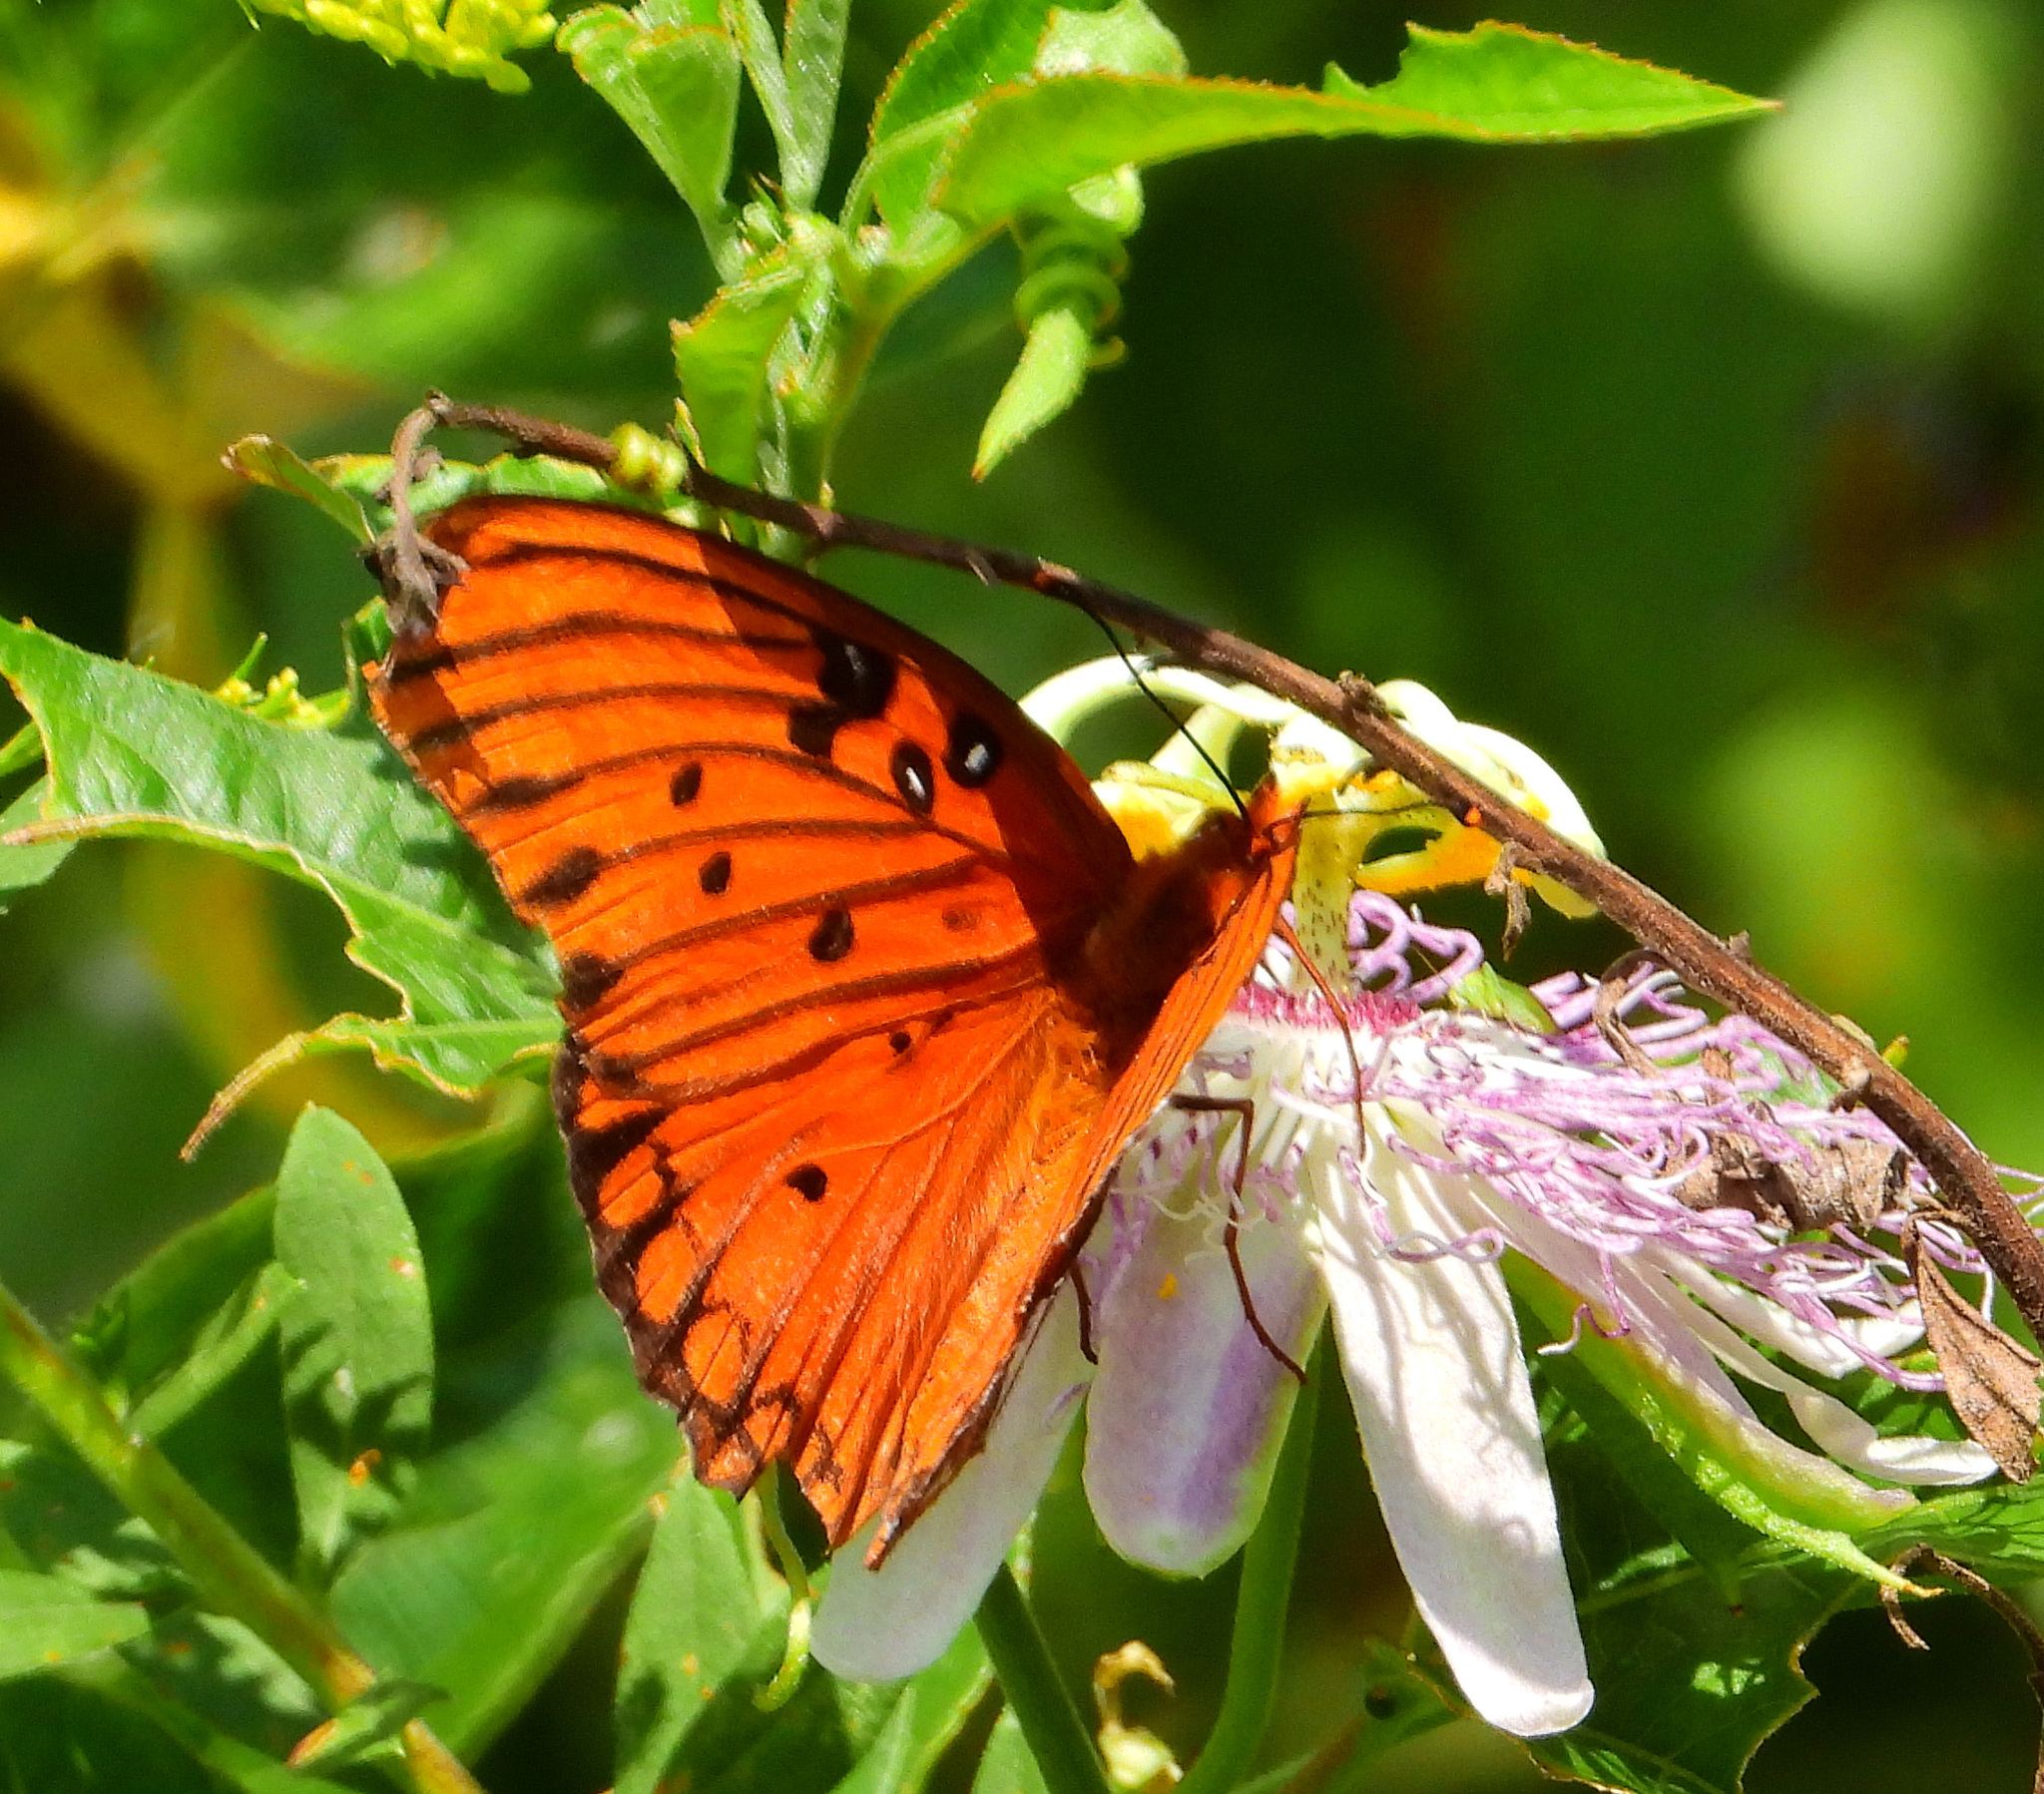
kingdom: Animalia
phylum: Arthropoda
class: Insecta
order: Lepidoptera
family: Nymphalidae
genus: Dione
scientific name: Dione vanillae
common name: Gulf fritillary
